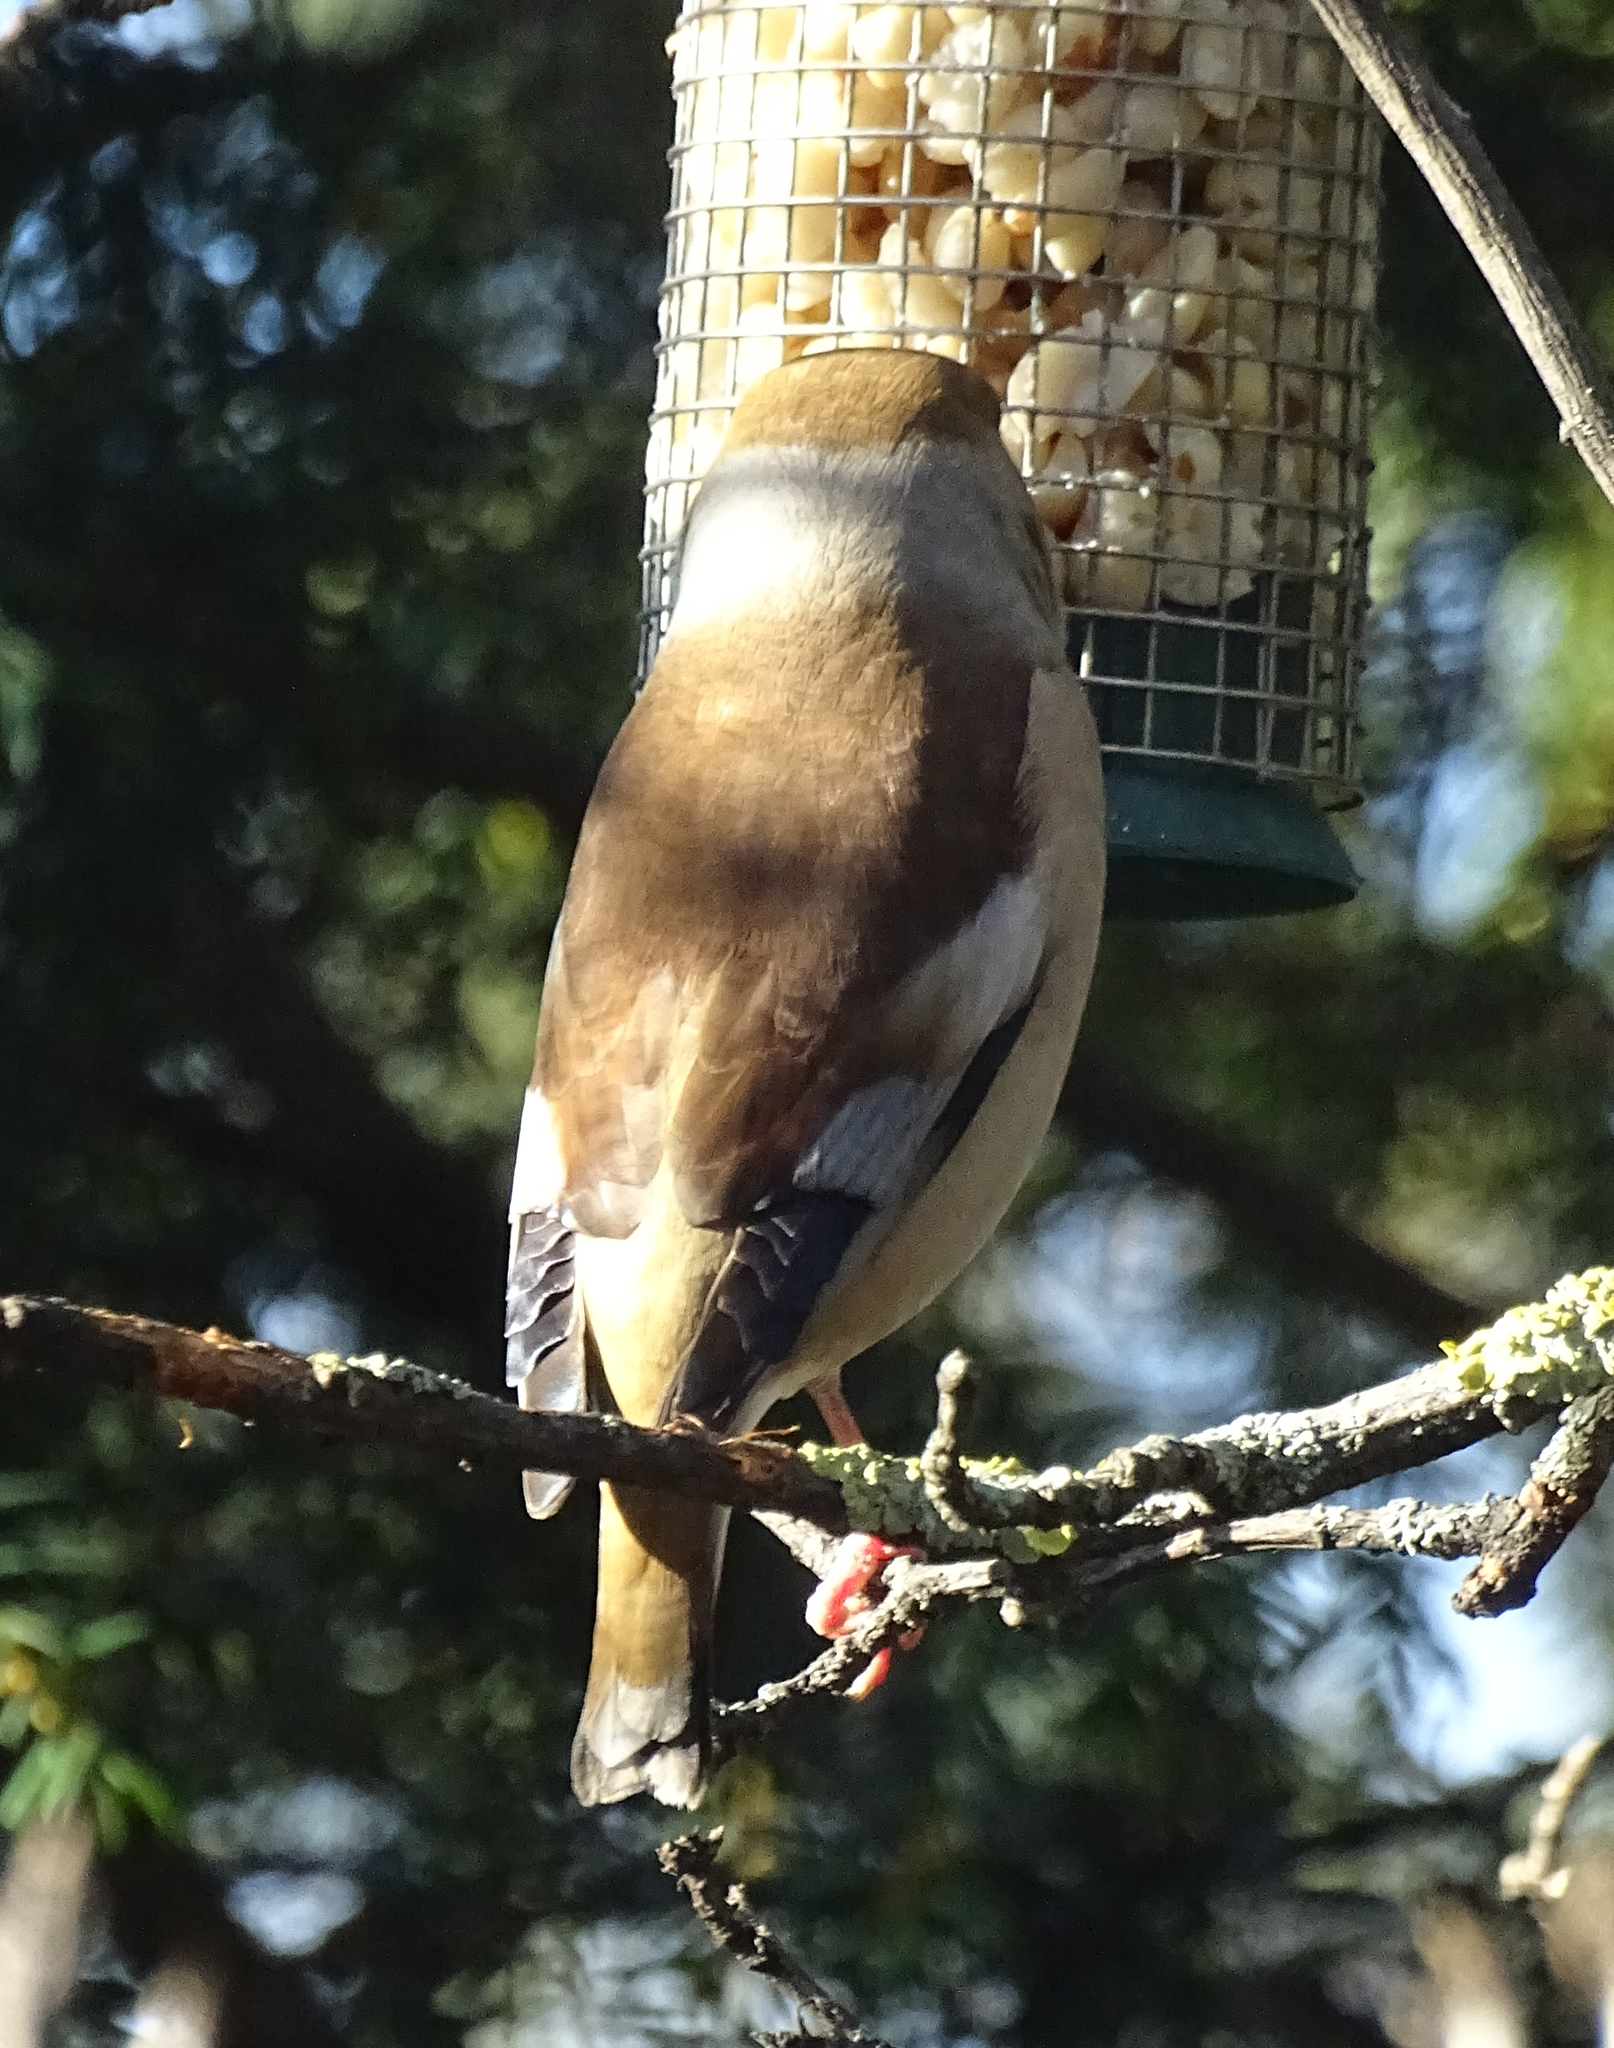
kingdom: Animalia
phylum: Chordata
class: Aves
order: Passeriformes
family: Fringillidae
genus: Coccothraustes
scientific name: Coccothraustes coccothraustes
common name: Hawfinch
